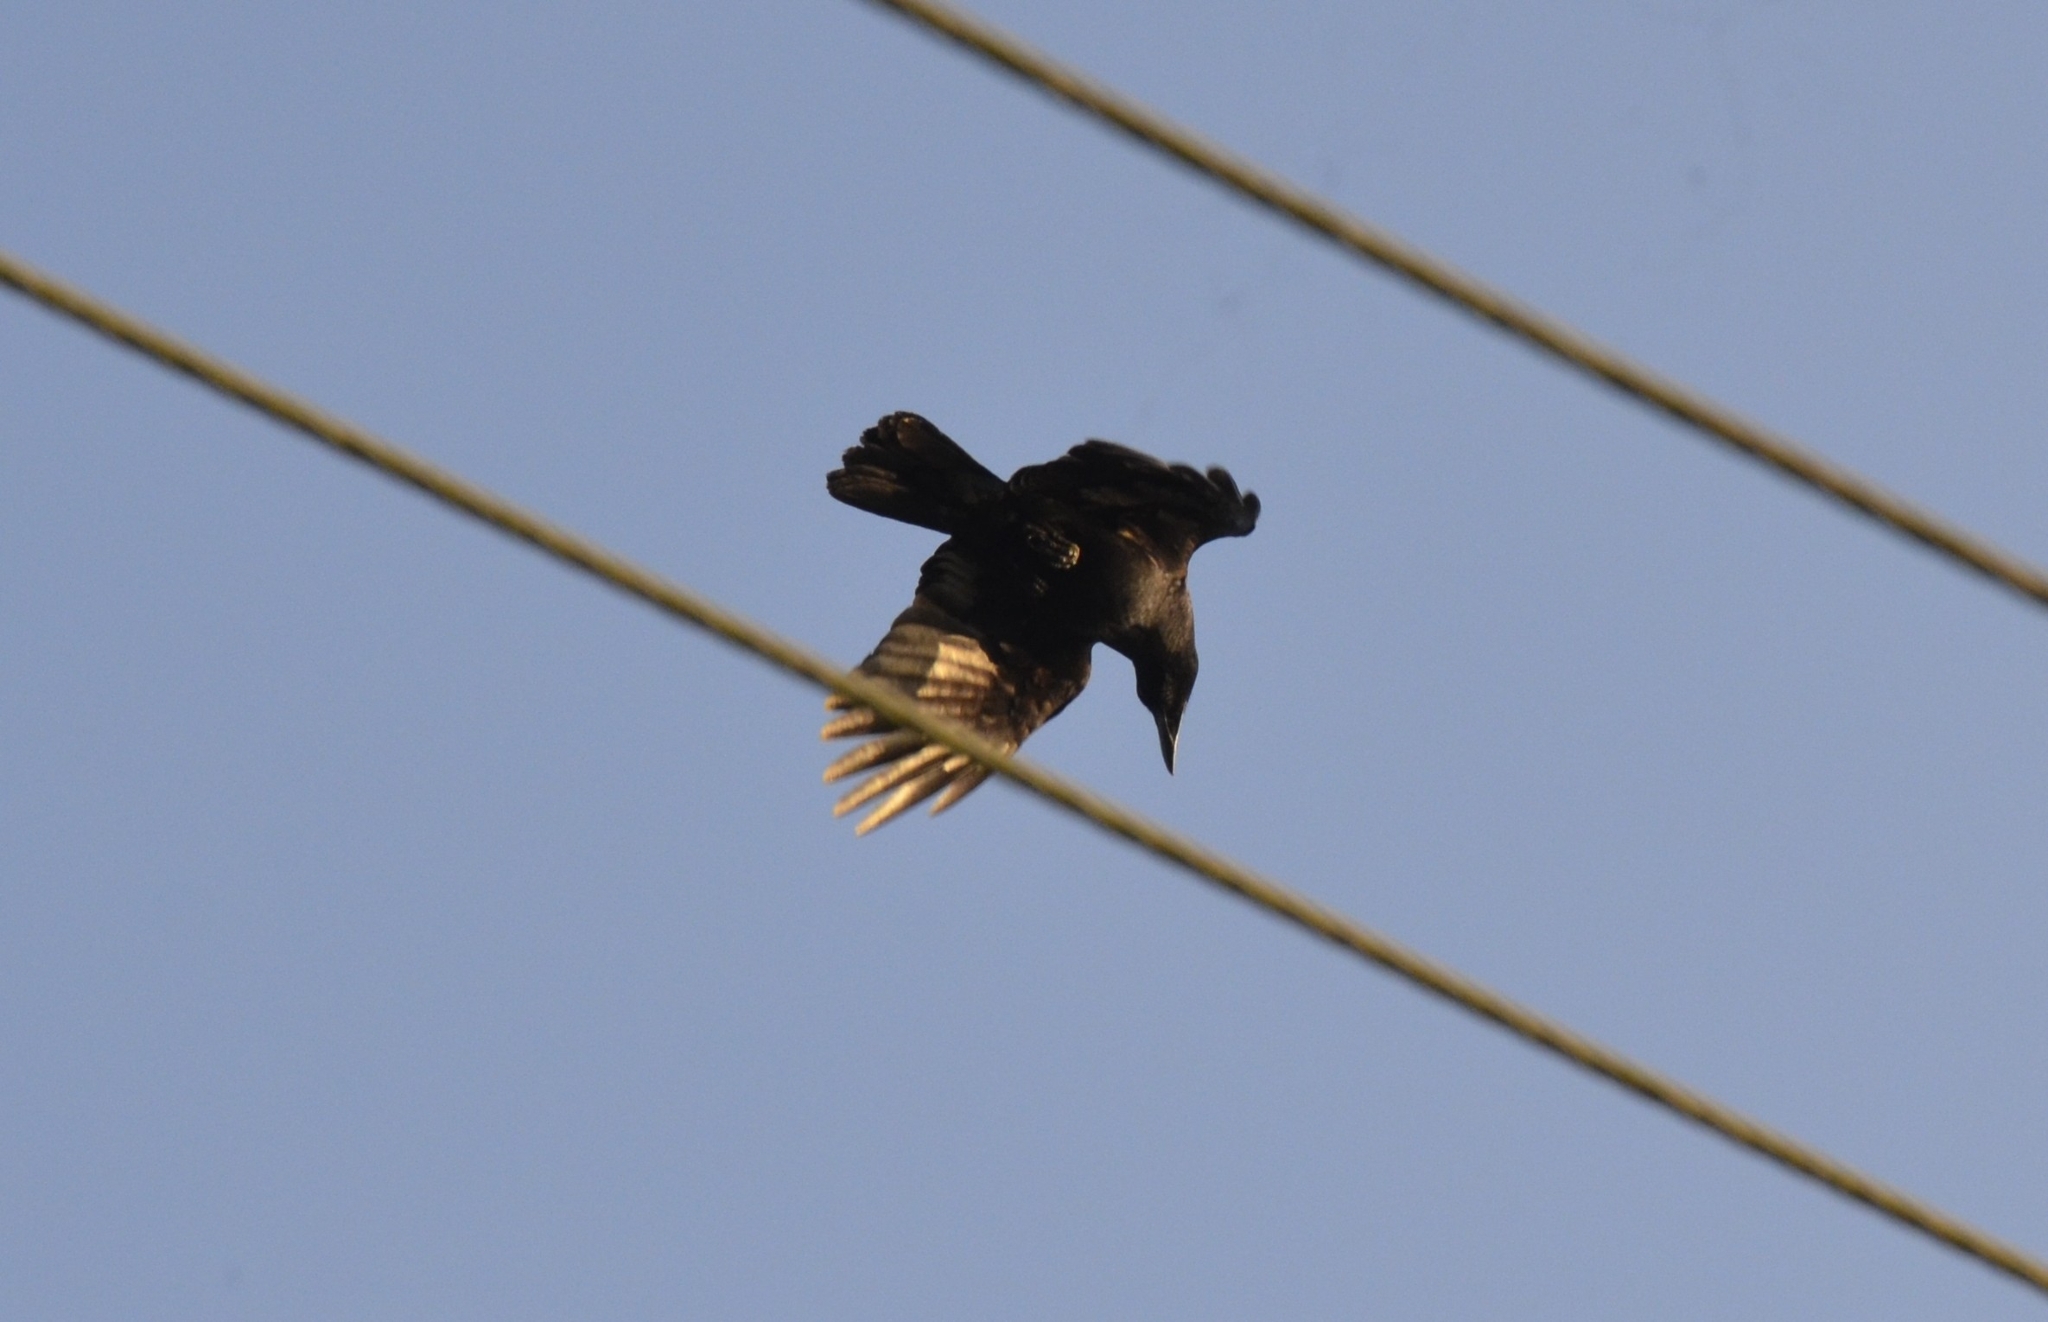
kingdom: Animalia
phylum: Chordata
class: Aves
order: Passeriformes
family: Corvidae
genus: Corvus
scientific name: Corvus splendens
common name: House crow
